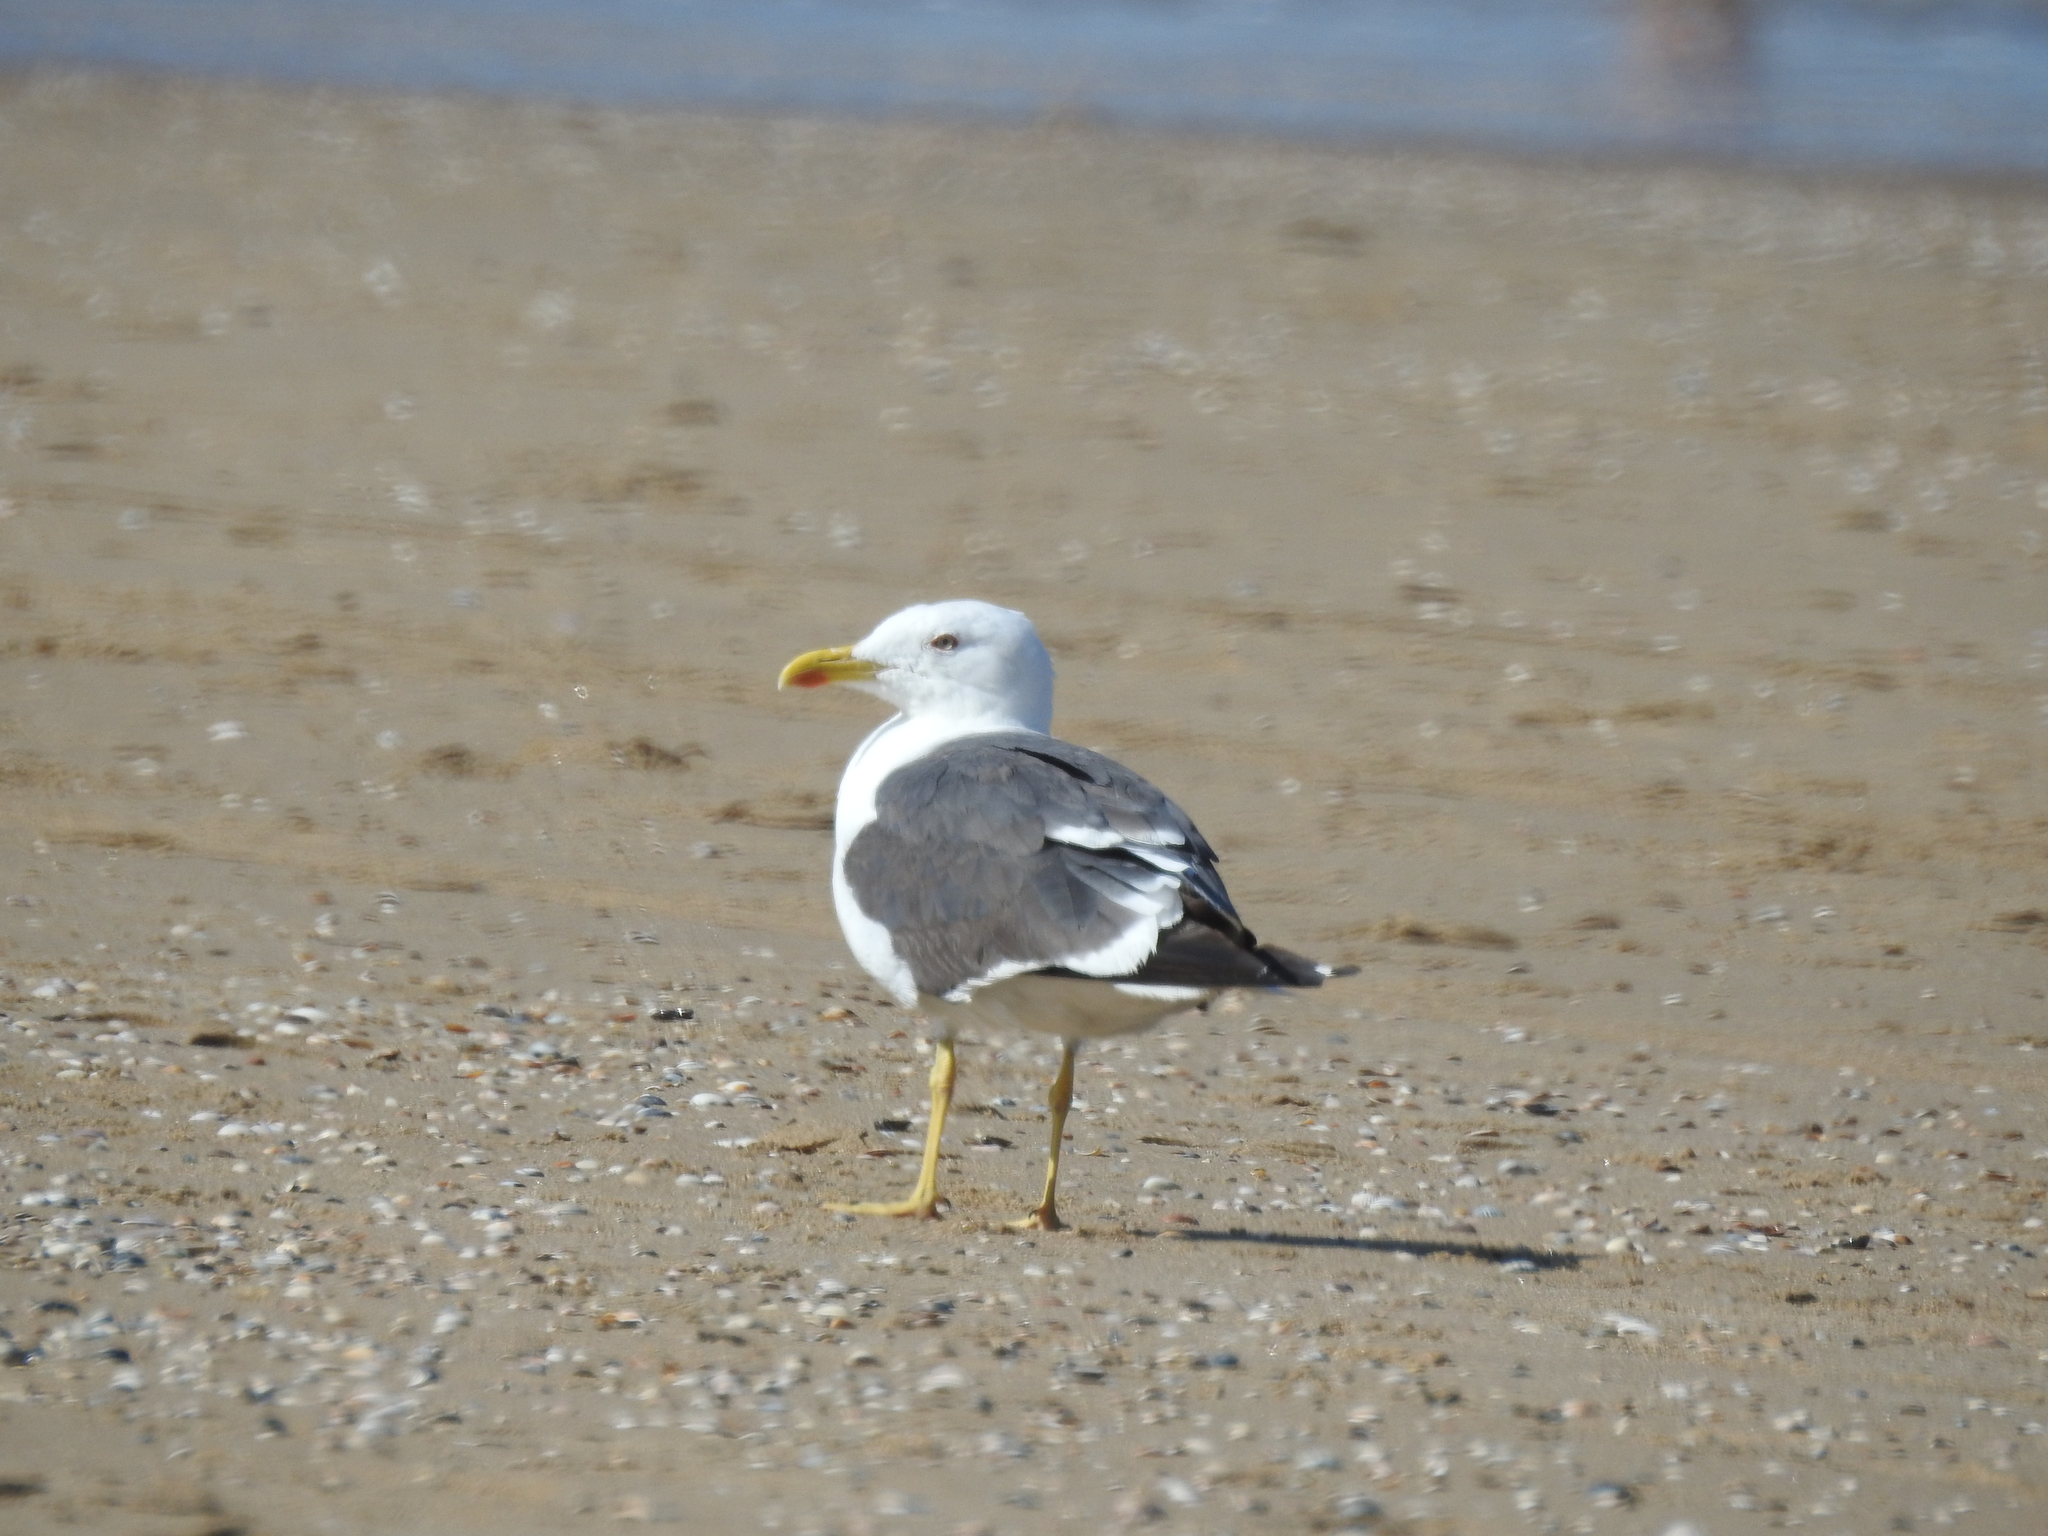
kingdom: Animalia
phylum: Chordata
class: Aves
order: Charadriiformes
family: Laridae
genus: Larus
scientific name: Larus fuscus
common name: Lesser black-backed gull
